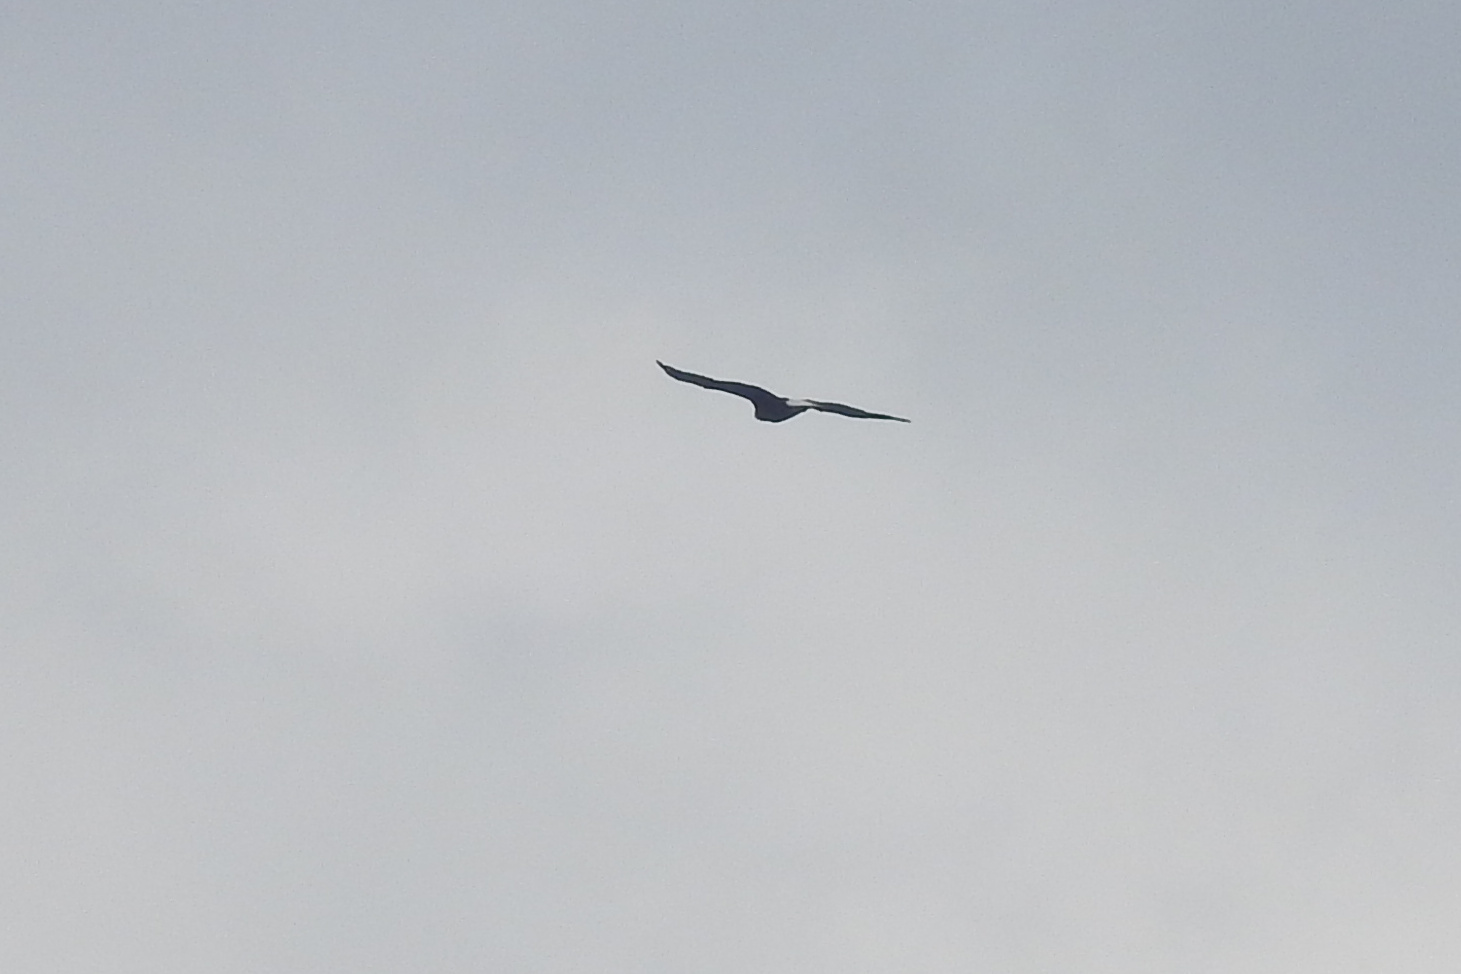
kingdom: Animalia
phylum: Chordata
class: Aves
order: Accipitriformes
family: Accipitridae
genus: Haliaeetus
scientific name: Haliaeetus leucocephalus
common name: Bald eagle
